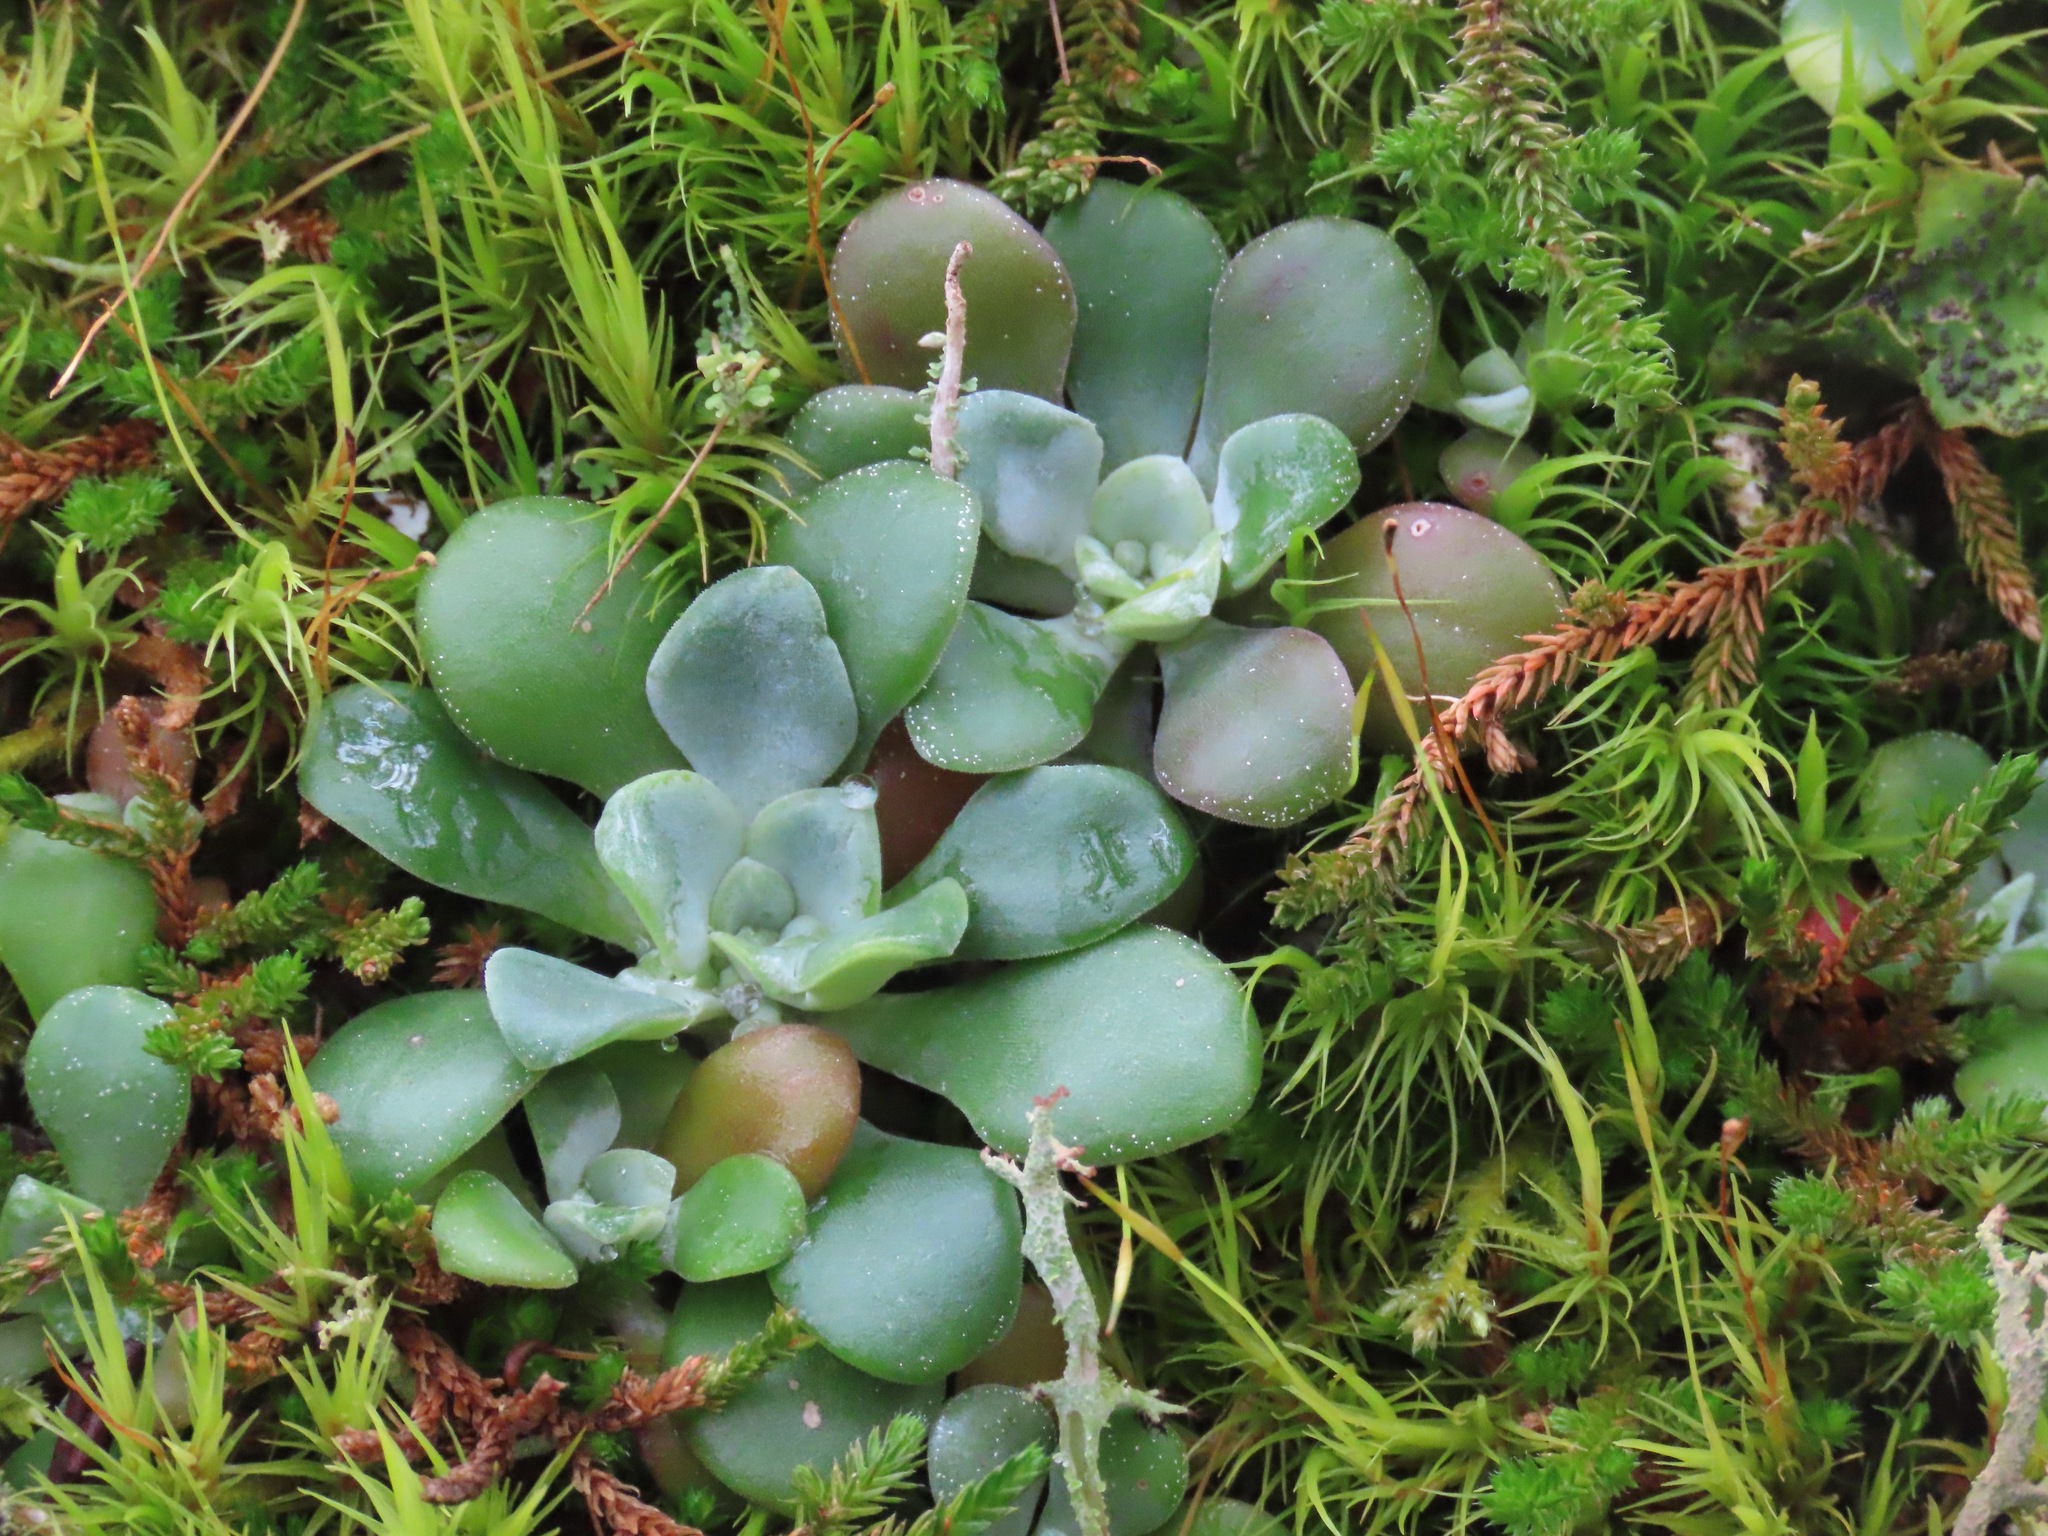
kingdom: Plantae
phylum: Tracheophyta
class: Magnoliopsida
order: Saxifragales
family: Crassulaceae
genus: Sedum
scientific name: Sedum spathulifolium
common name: Colorado stonecrop
